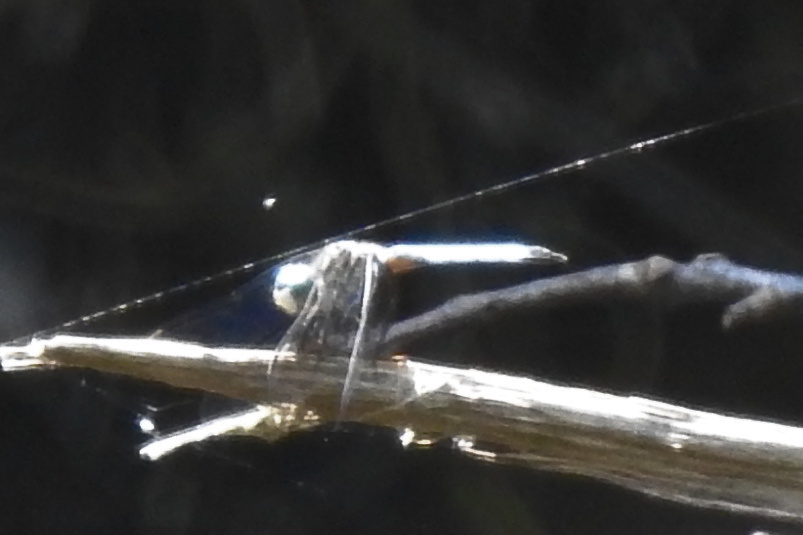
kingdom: Animalia
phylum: Arthropoda
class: Insecta
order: Odonata
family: Libellulidae
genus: Pachydiplax
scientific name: Pachydiplax longipennis
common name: Blue dasher
